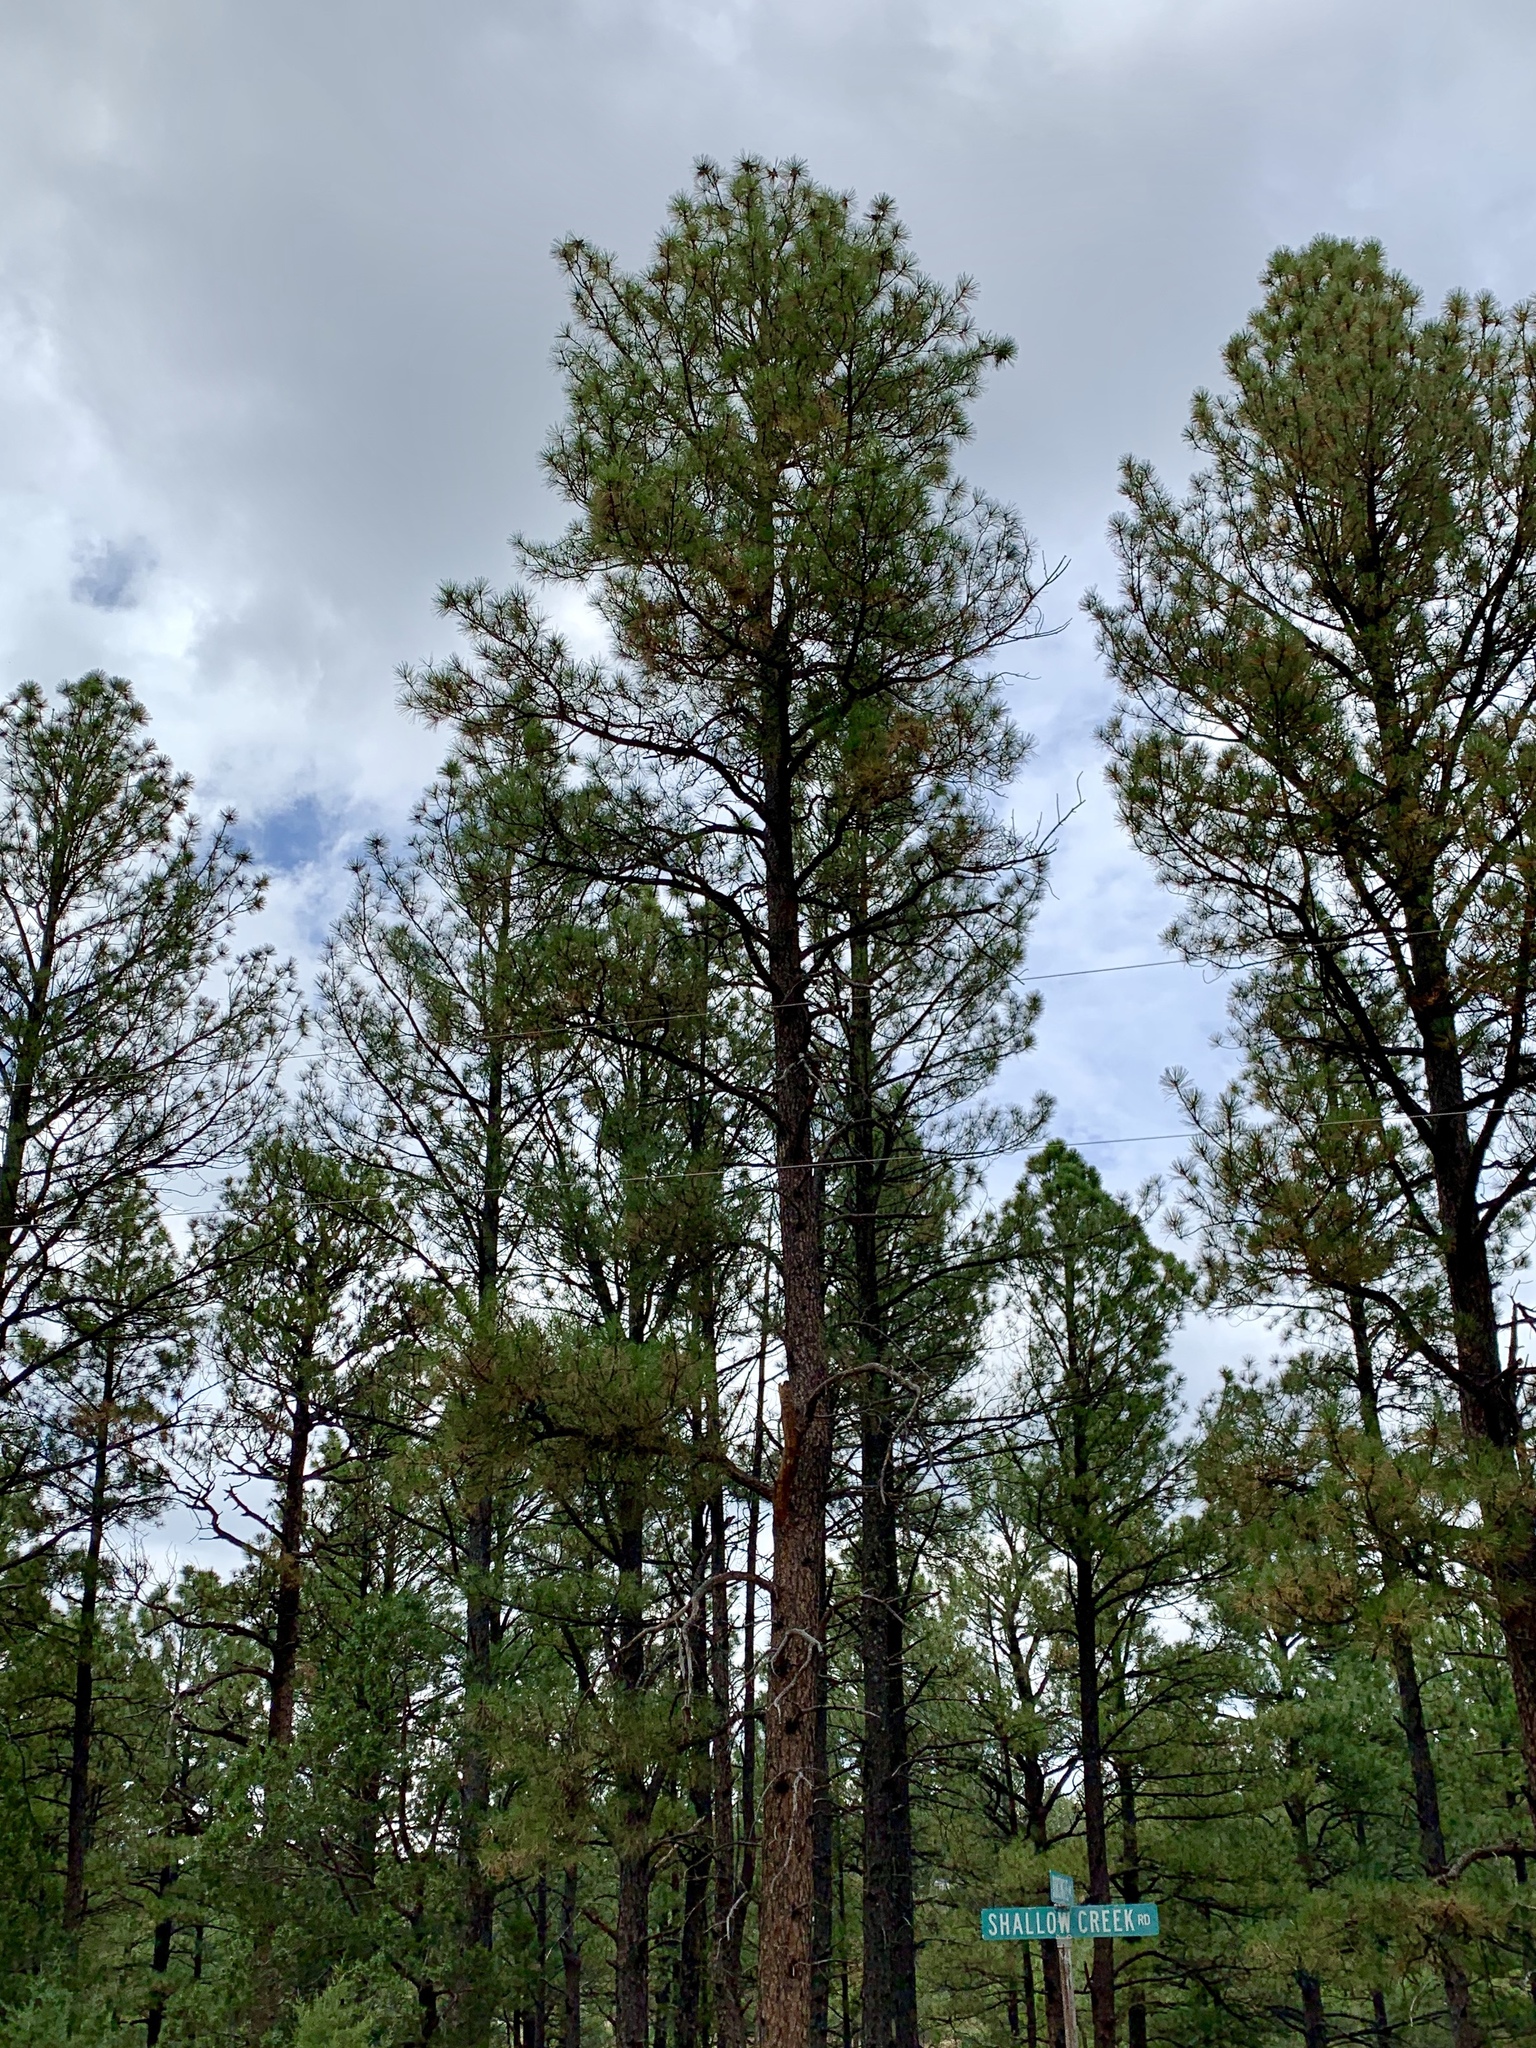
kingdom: Plantae
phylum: Tracheophyta
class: Pinopsida
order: Pinales
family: Pinaceae
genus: Pinus
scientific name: Pinus ponderosa
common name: Western yellow-pine
